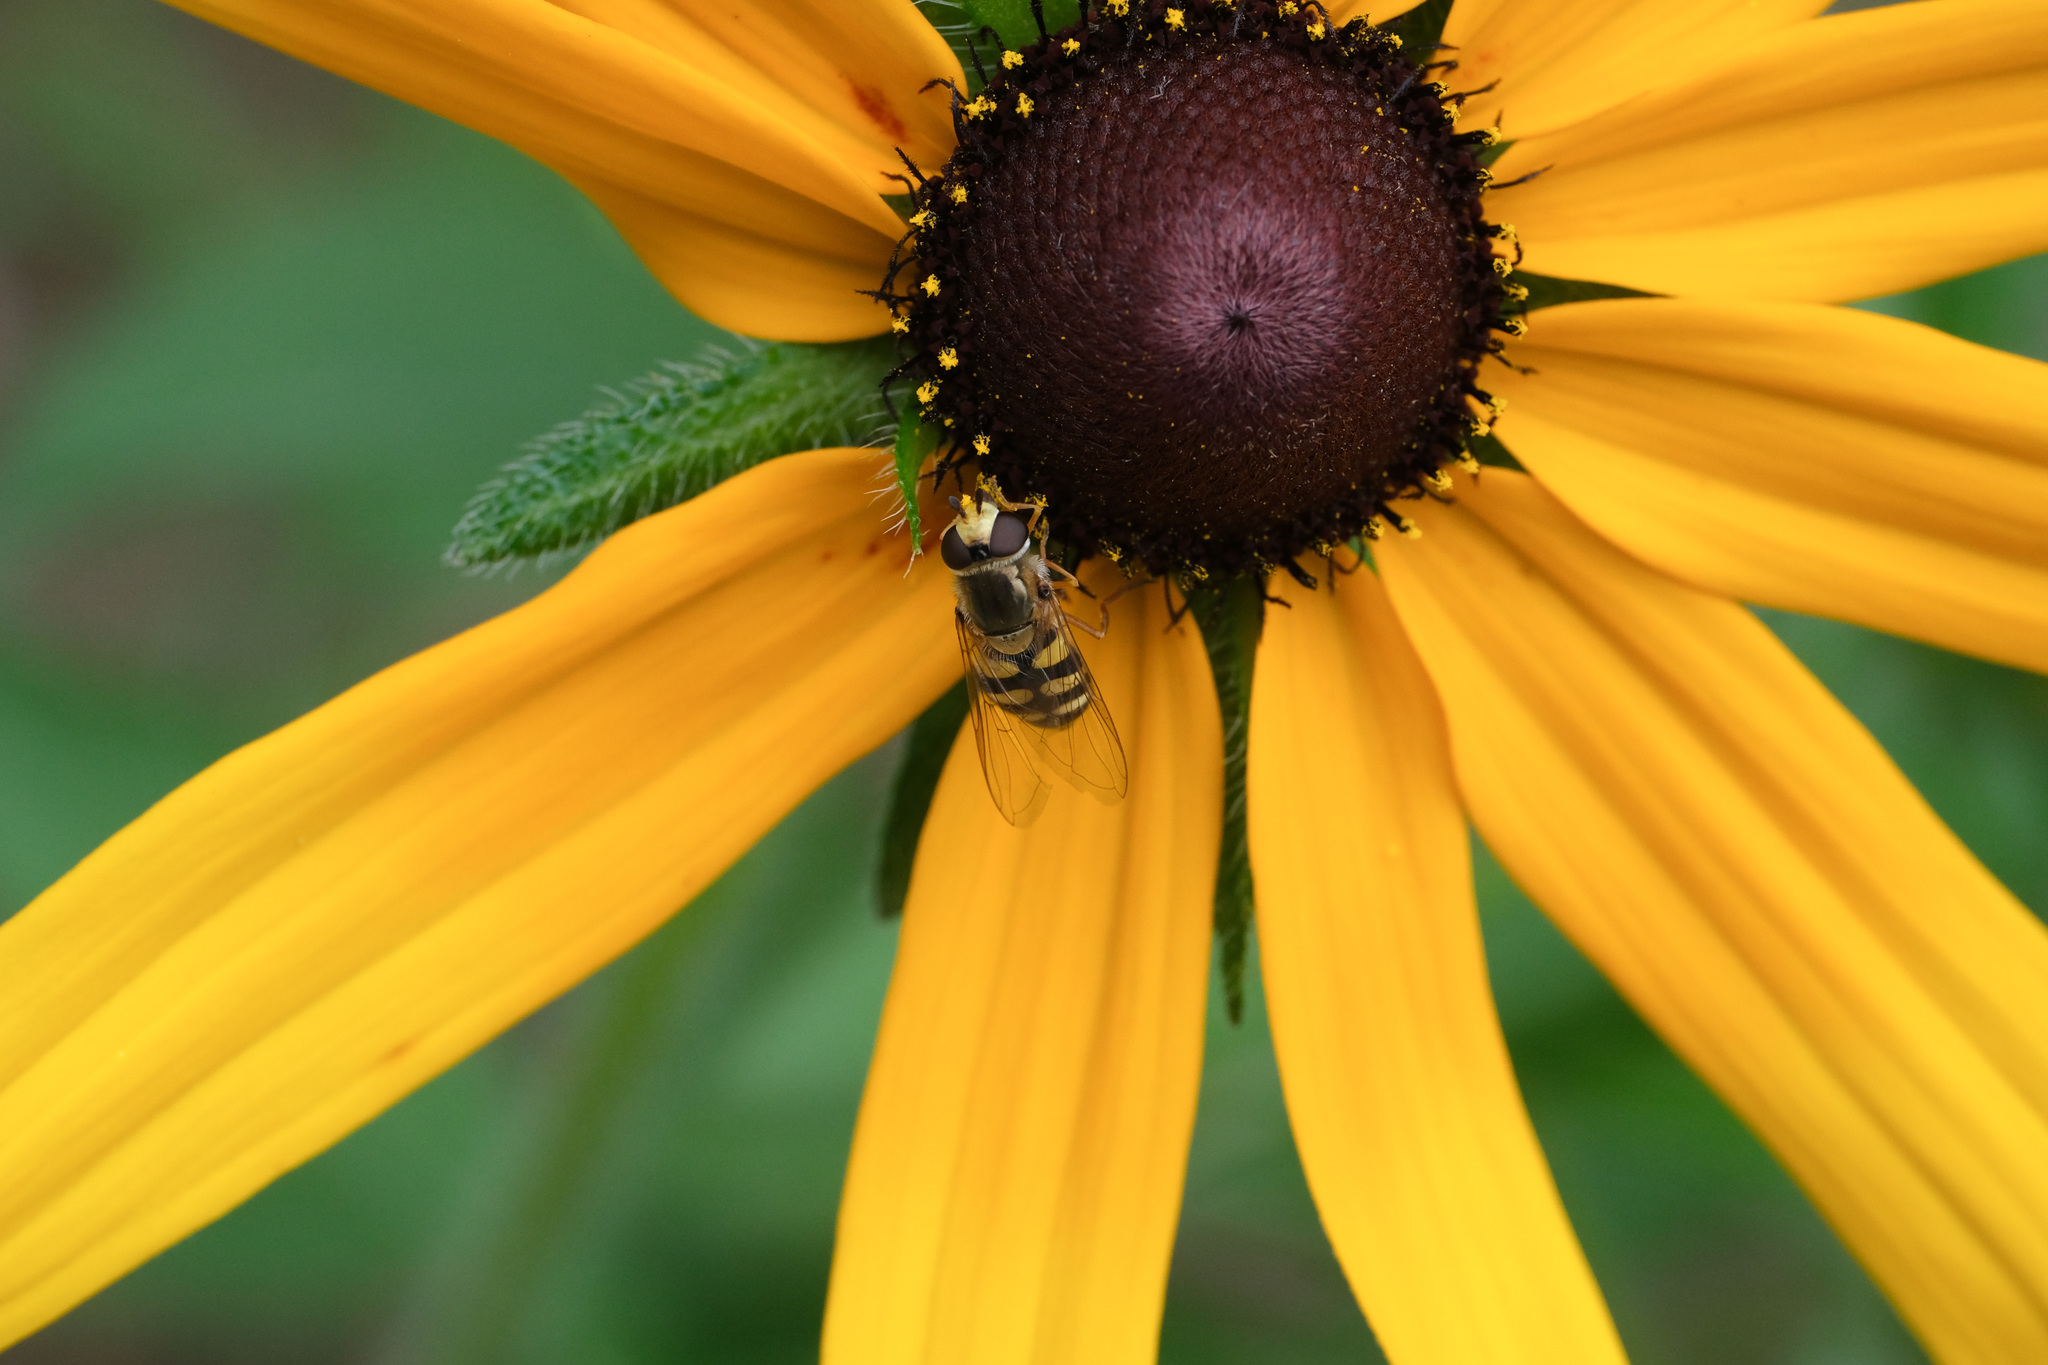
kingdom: Animalia
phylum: Arthropoda
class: Insecta
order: Diptera
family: Syrphidae
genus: Eupeodes
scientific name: Eupeodes corollae
